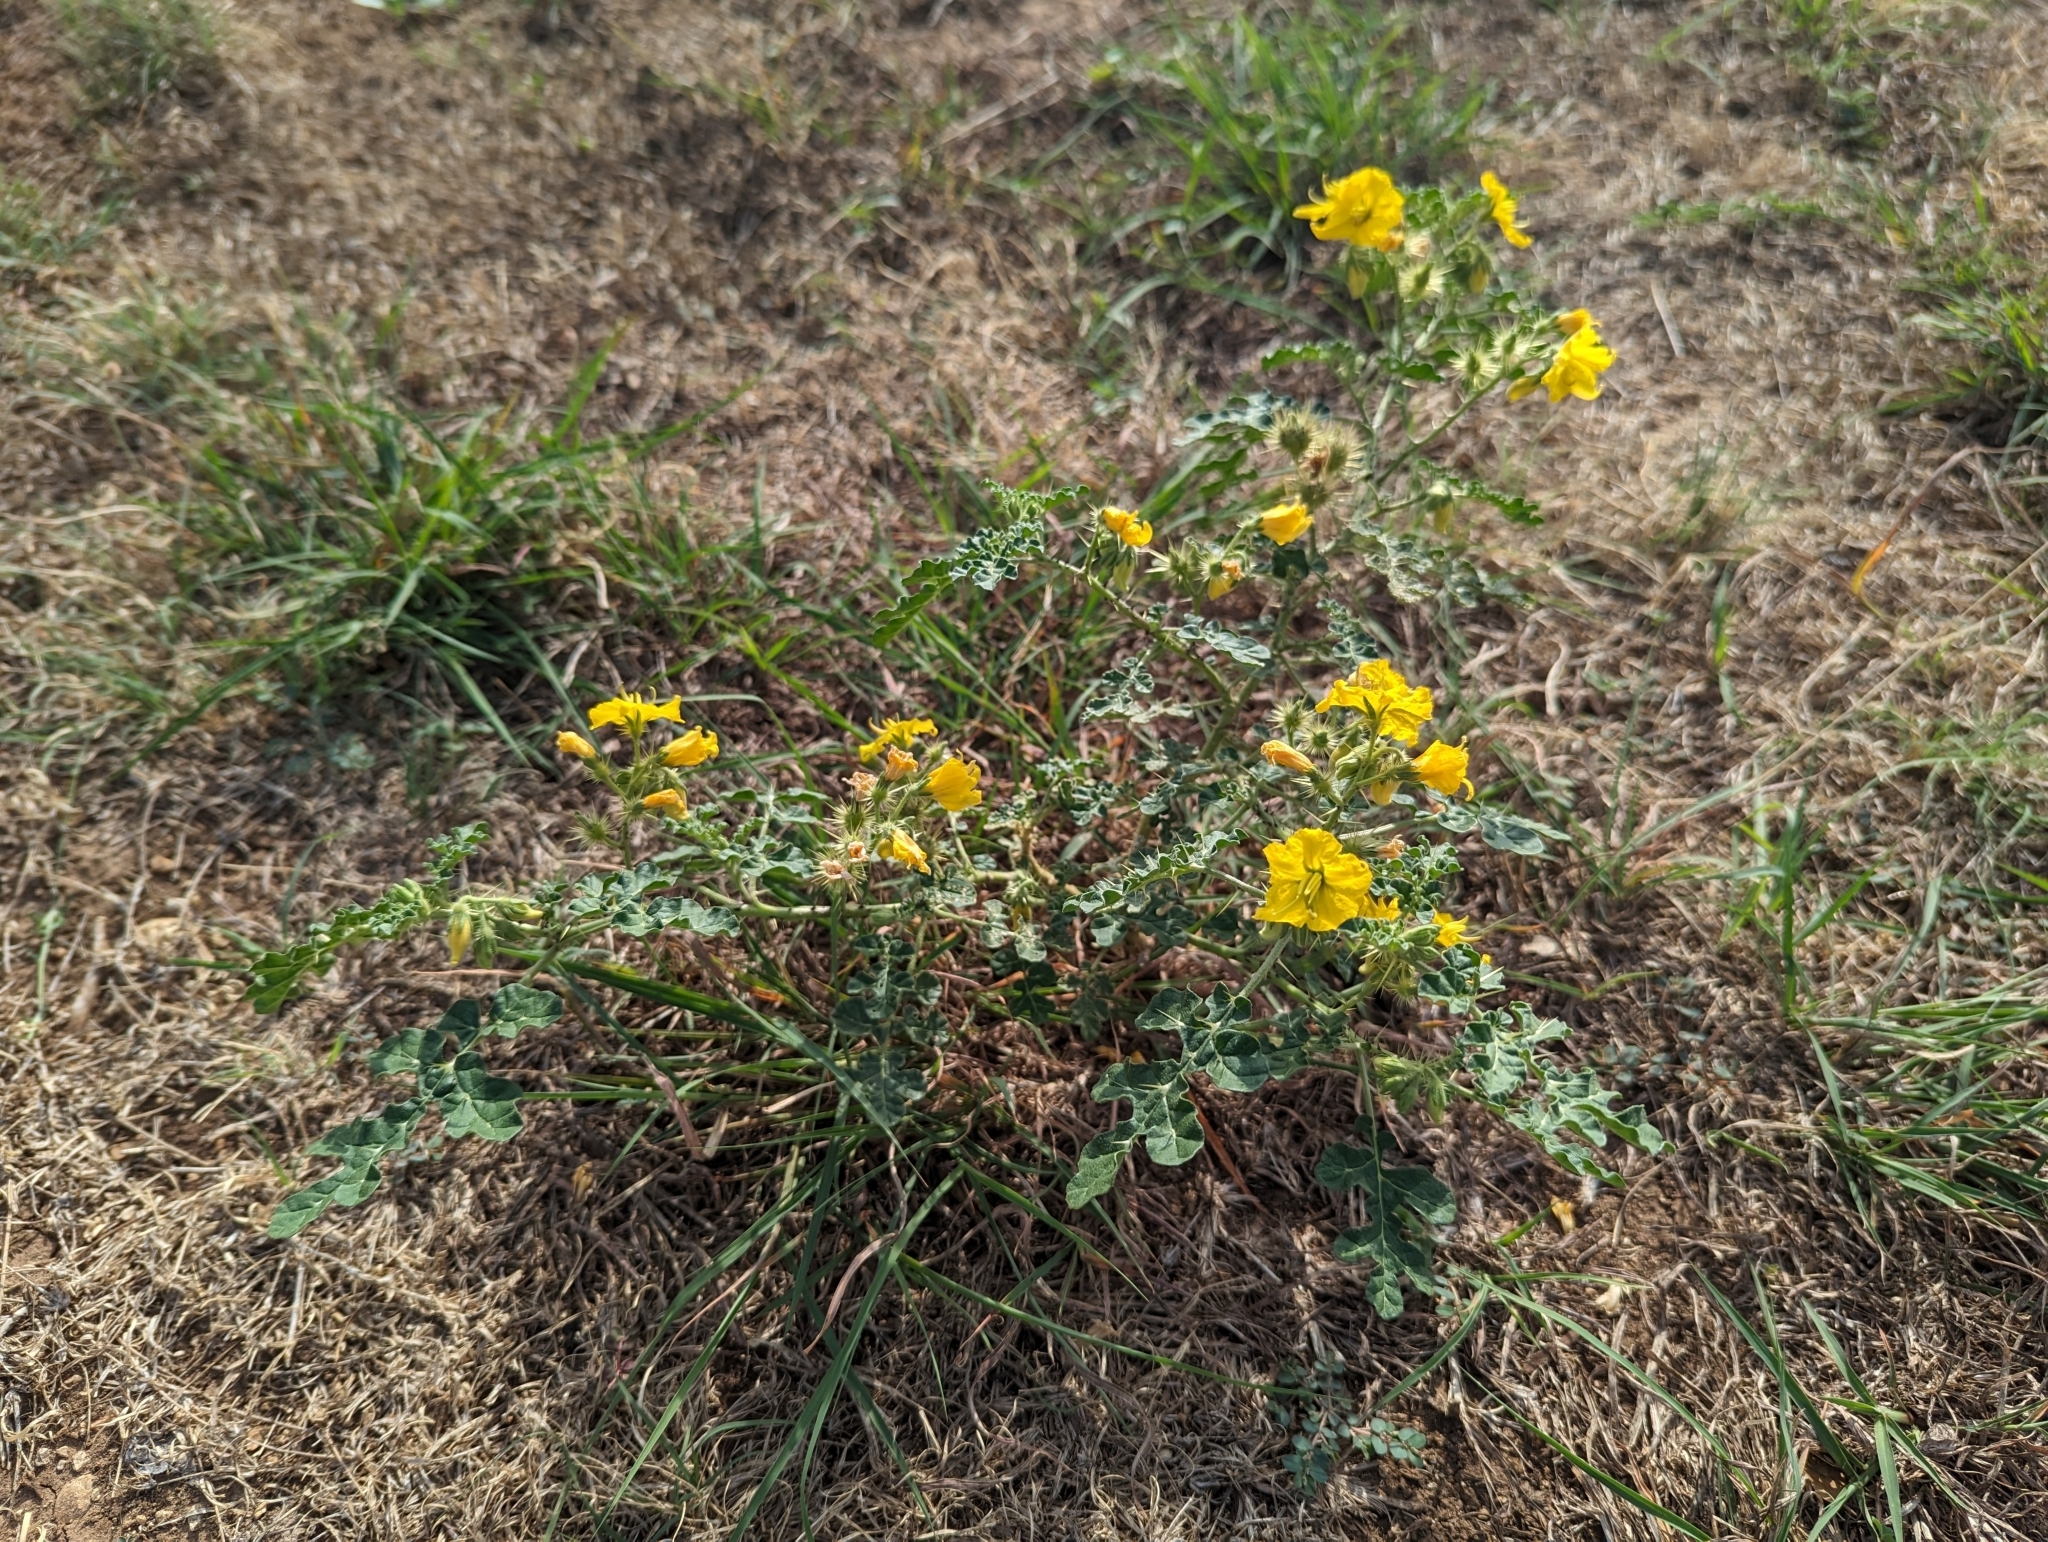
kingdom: Plantae
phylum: Tracheophyta
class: Magnoliopsida
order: Solanales
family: Solanaceae
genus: Solanum
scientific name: Solanum angustifolium
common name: Buffalobur nightshade
